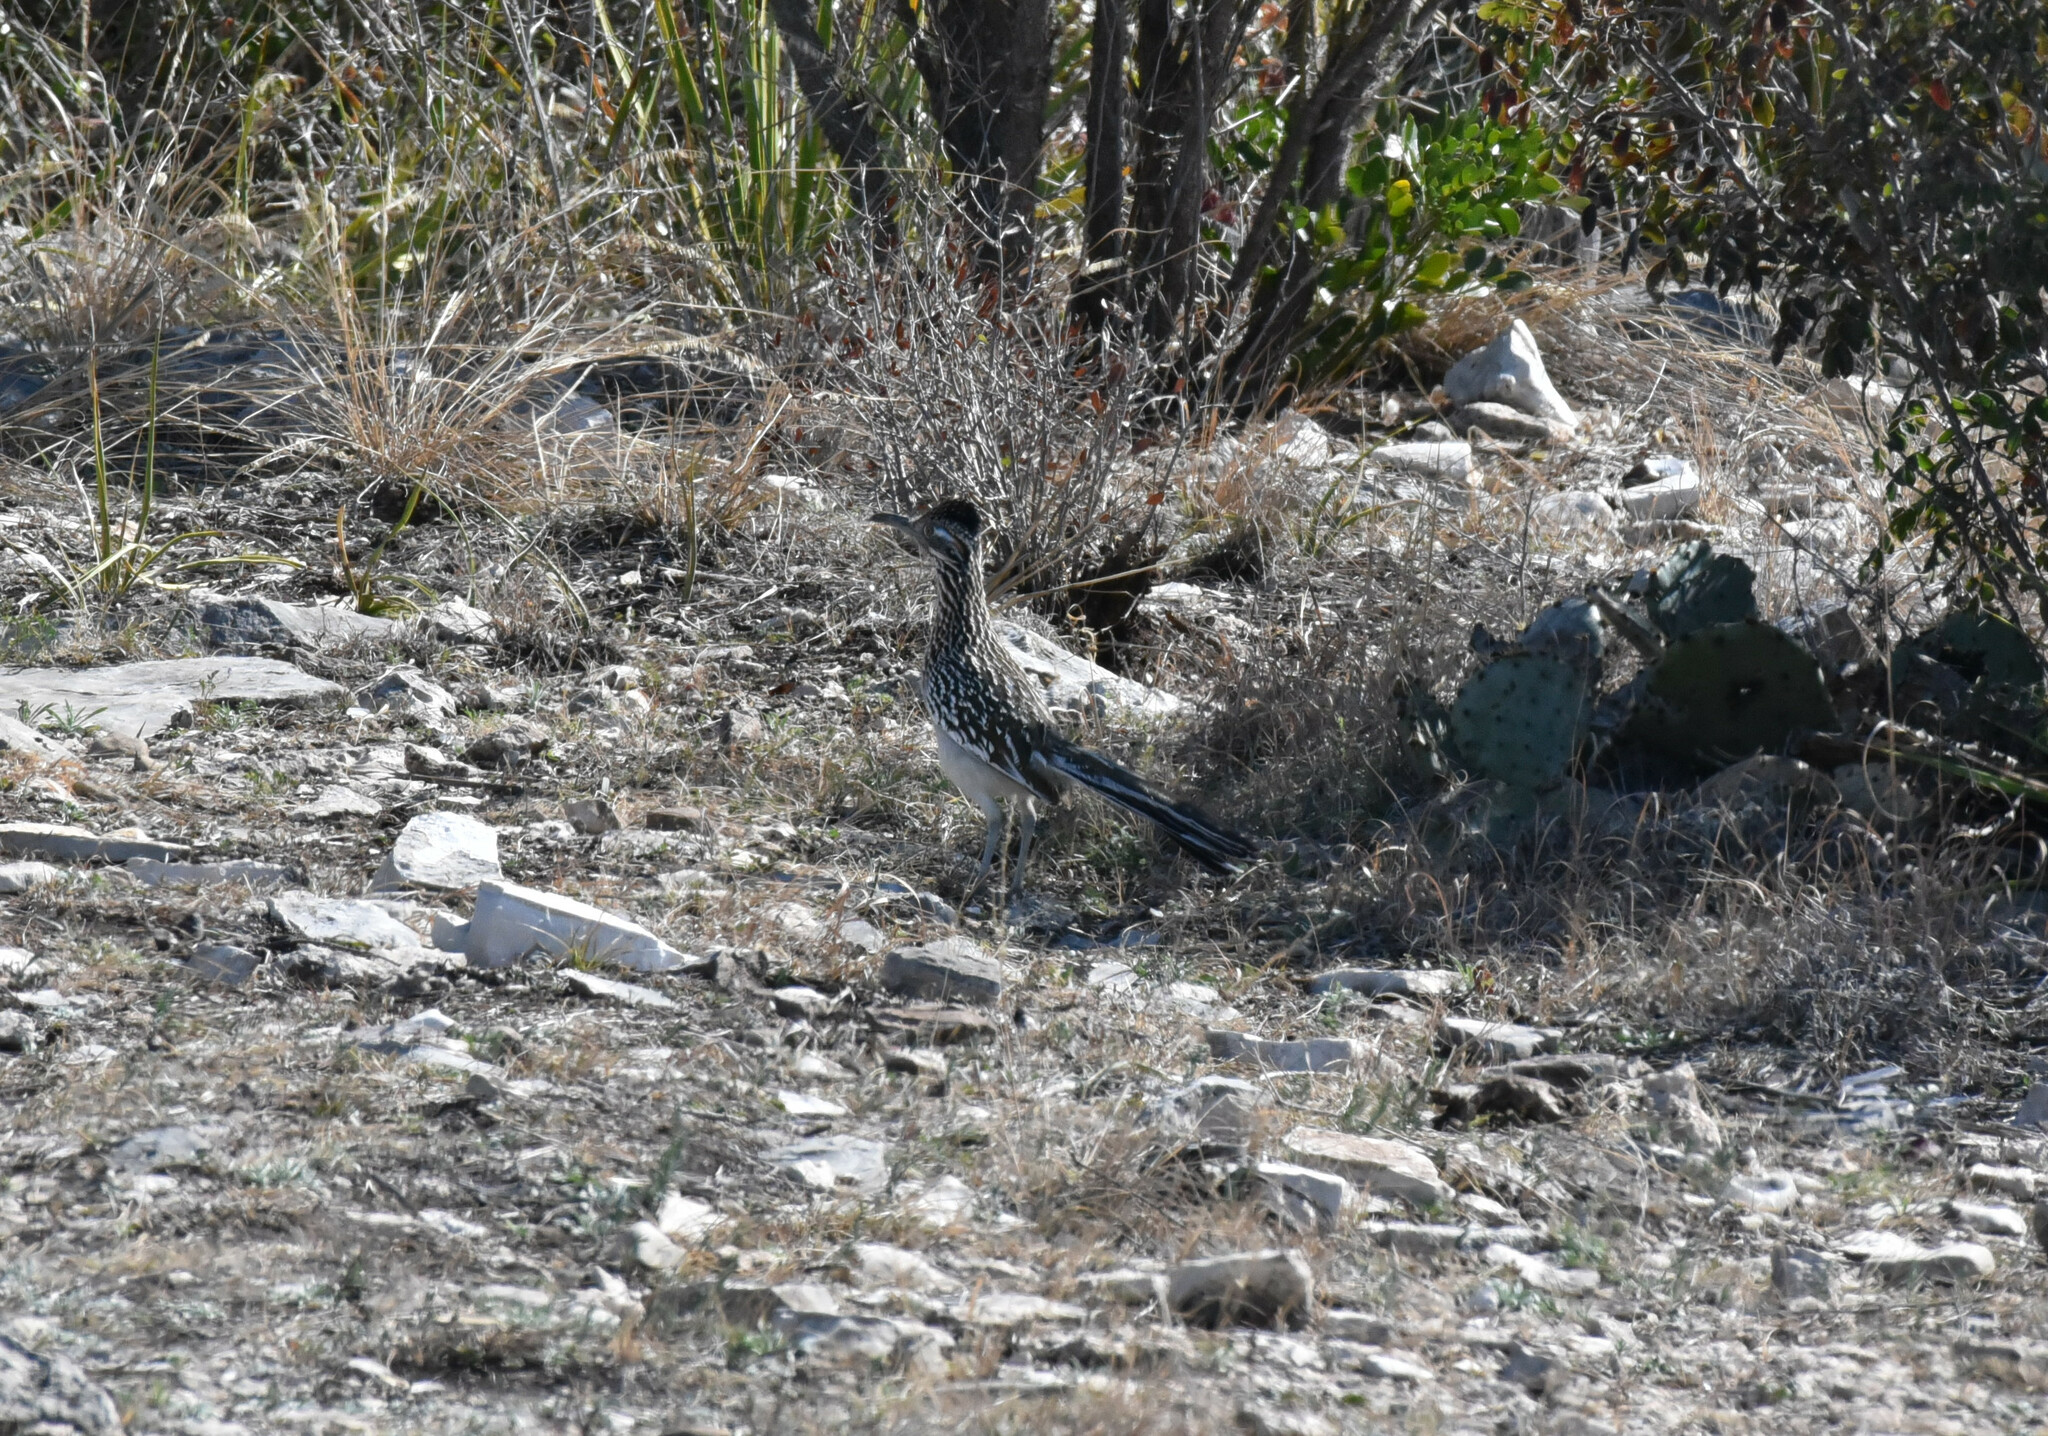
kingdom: Animalia
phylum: Chordata
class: Aves
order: Cuculiformes
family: Cuculidae
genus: Geococcyx
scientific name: Geococcyx californianus
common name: Greater roadrunner
